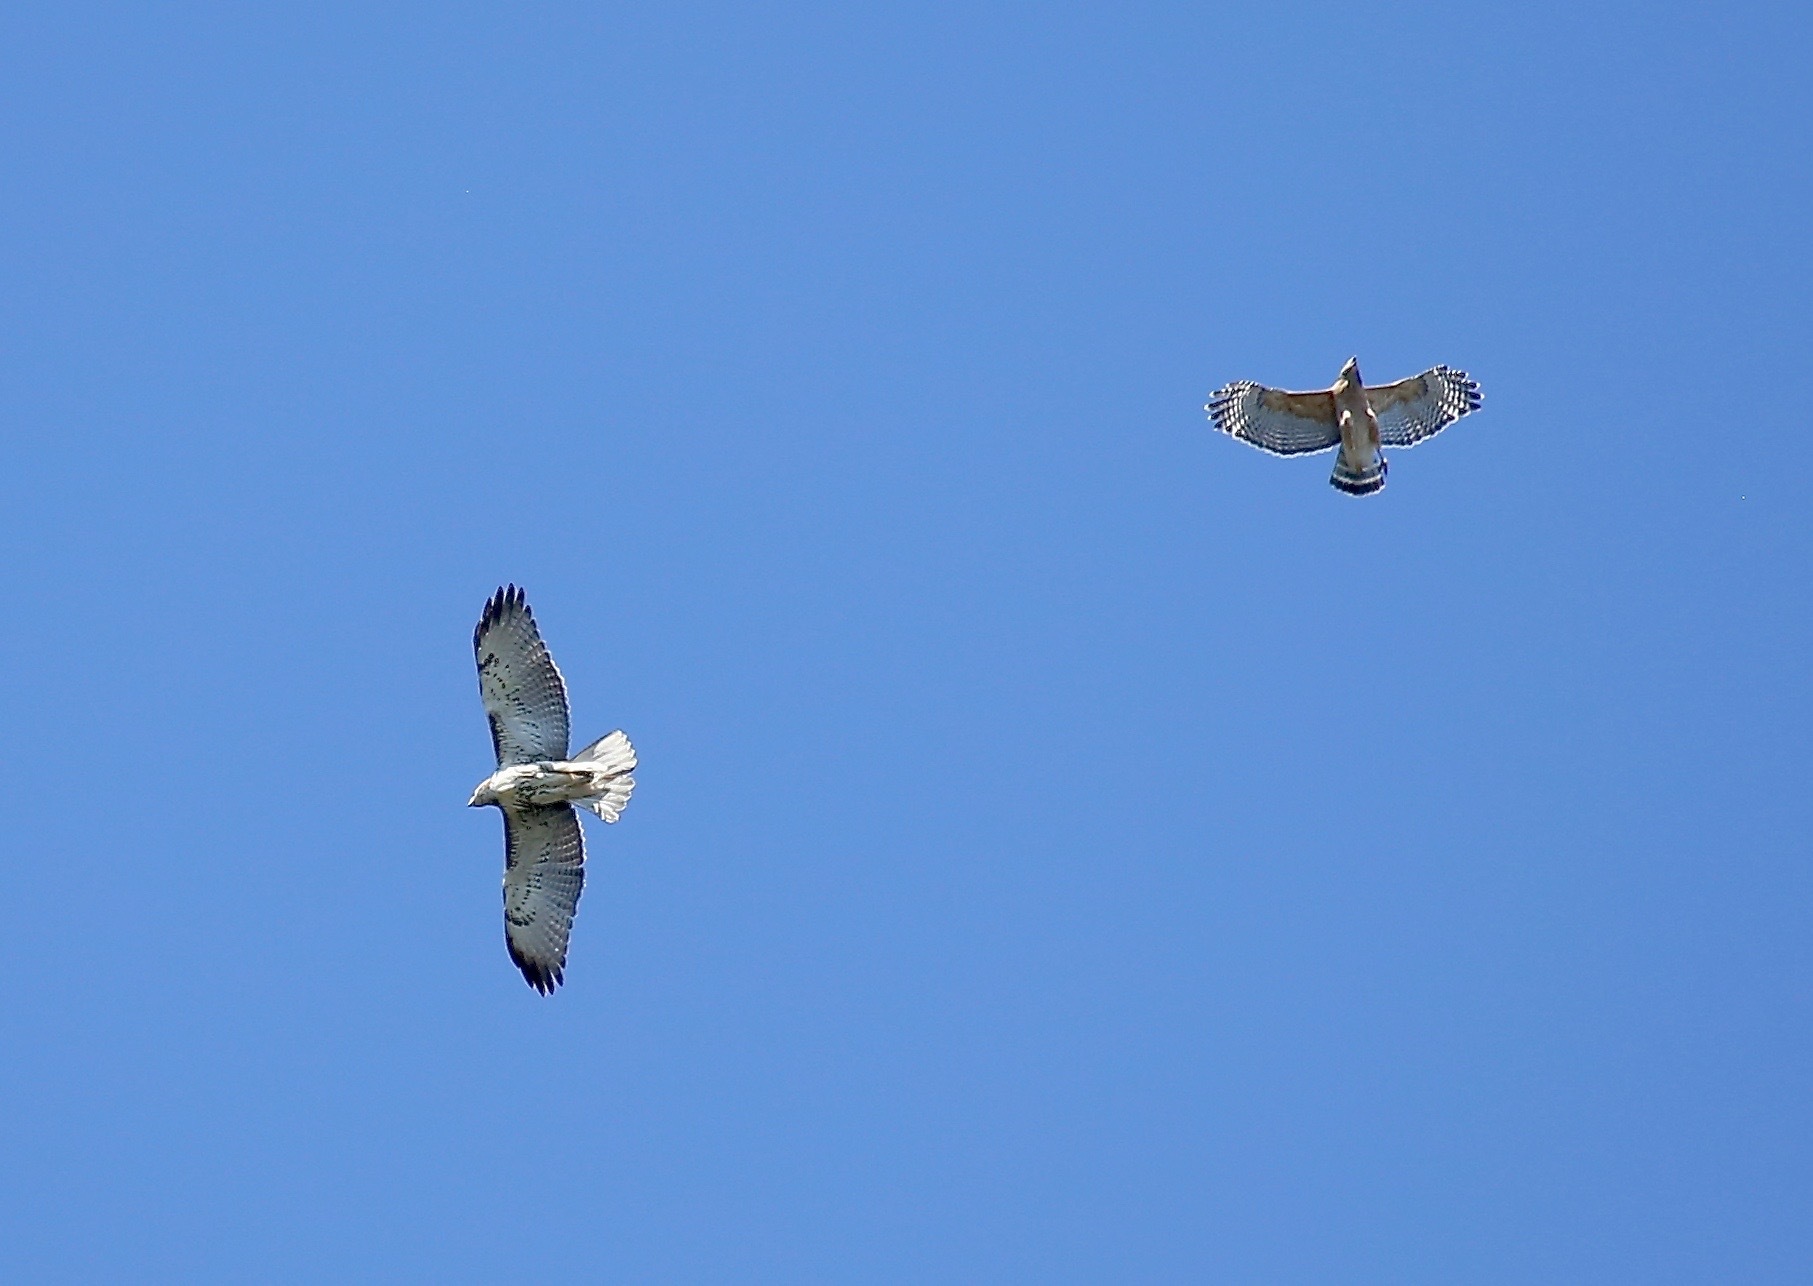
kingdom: Animalia
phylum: Chordata
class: Aves
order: Accipitriformes
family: Accipitridae
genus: Buteo
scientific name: Buteo lineatus
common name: Red-shouldered hawk
